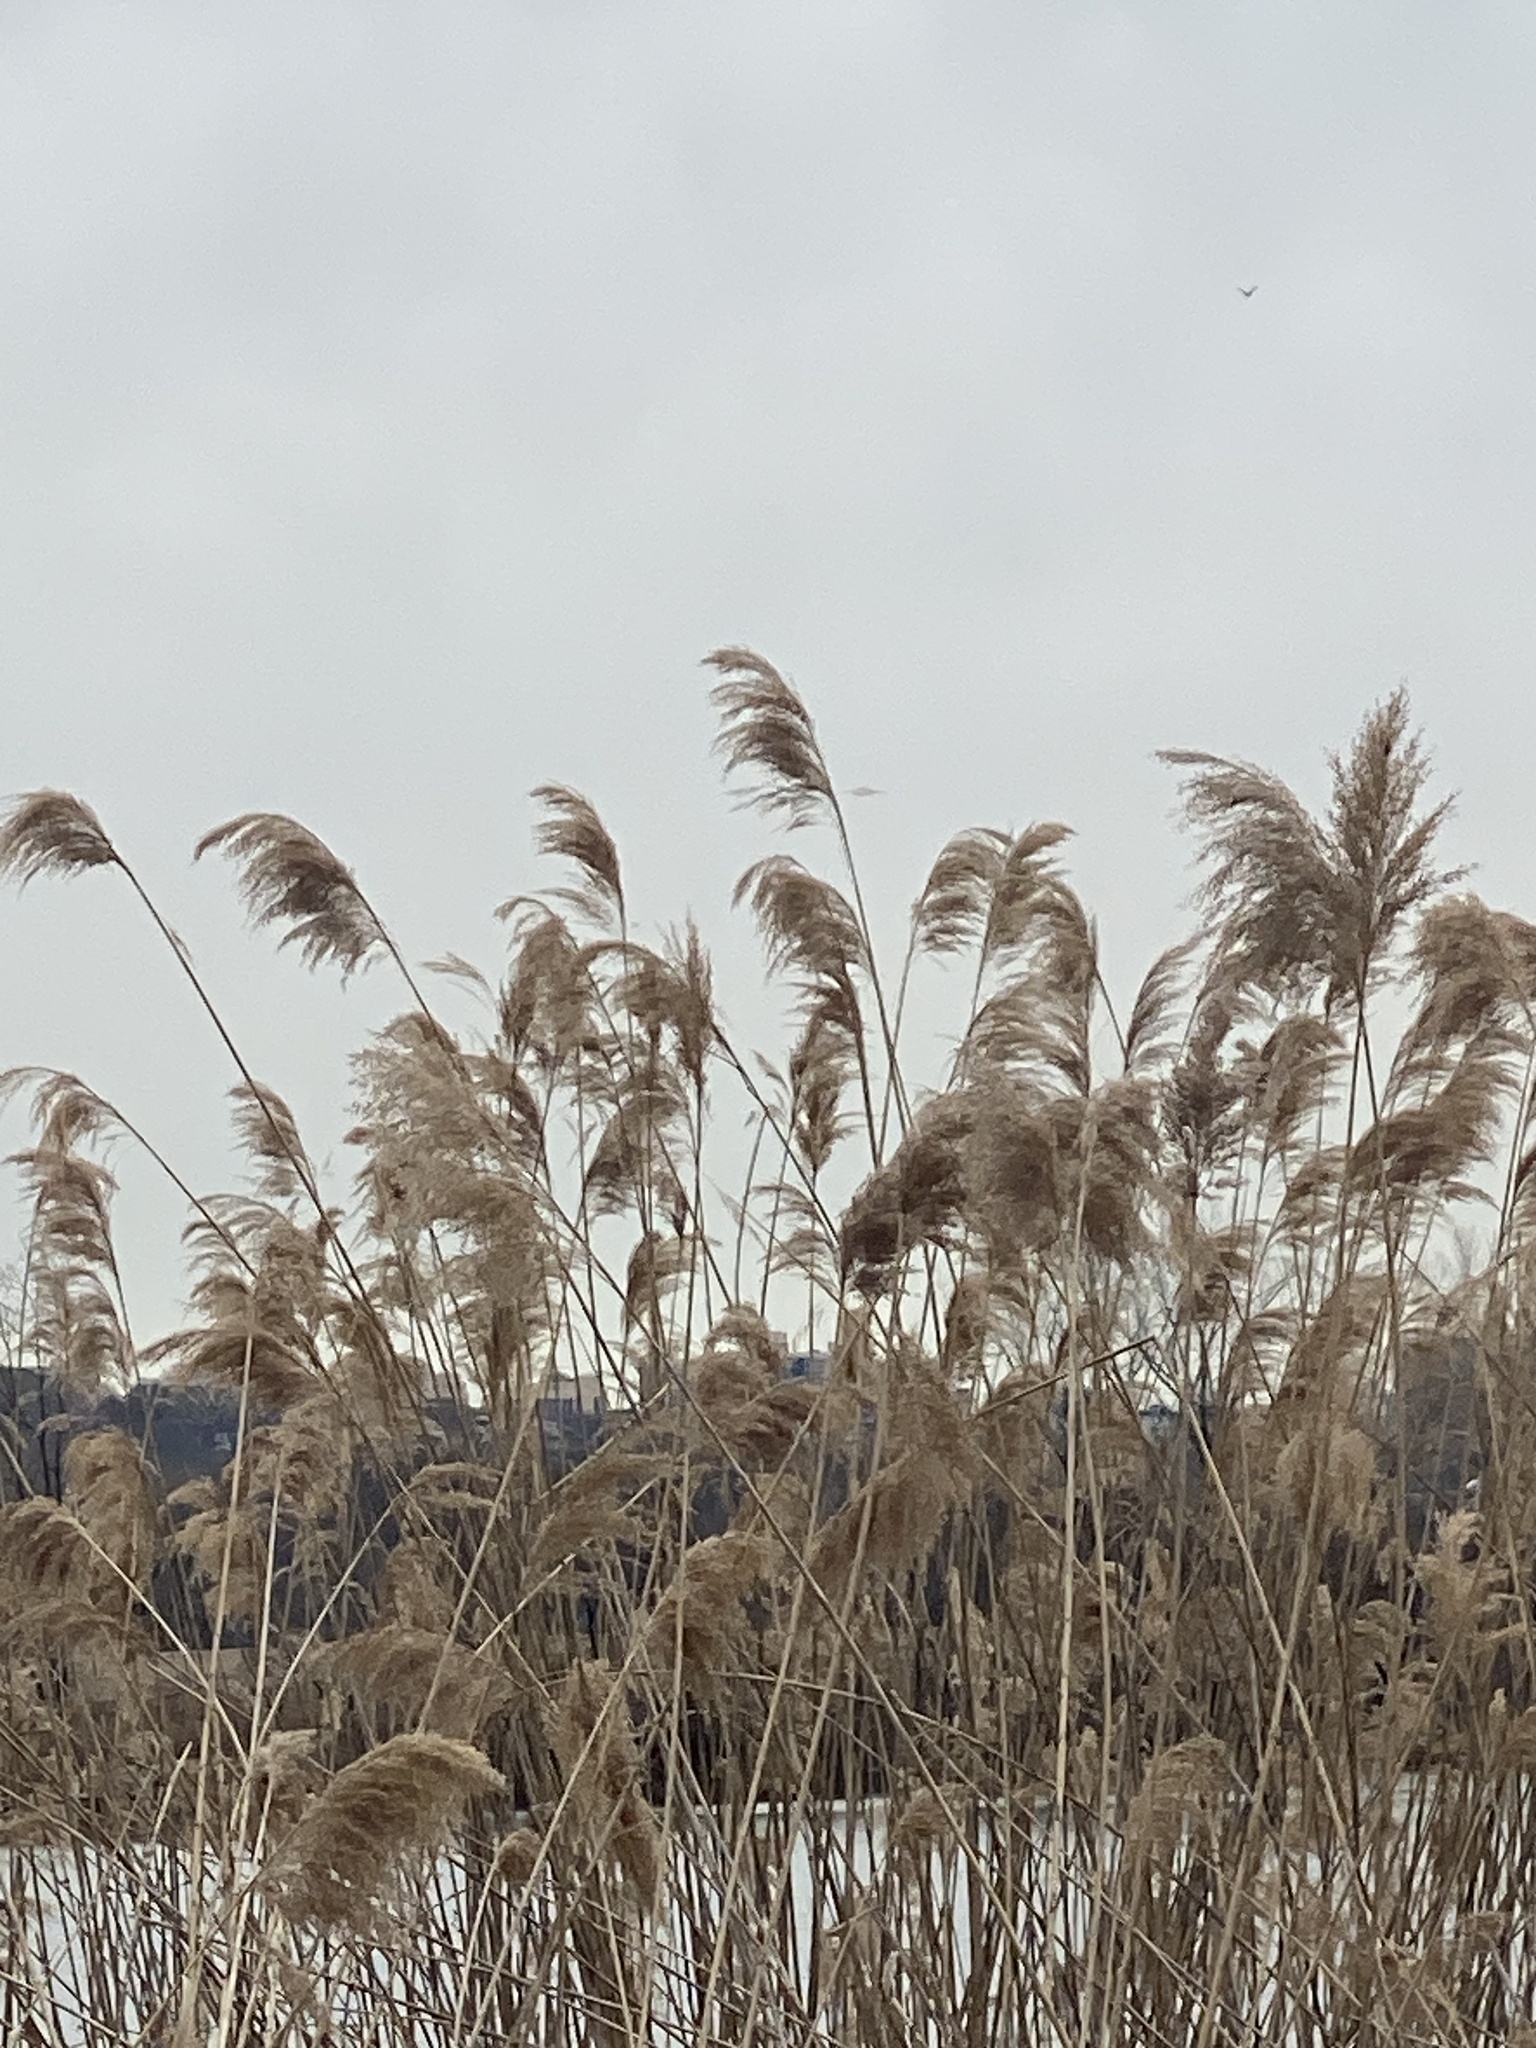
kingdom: Plantae
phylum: Tracheophyta
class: Liliopsida
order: Poales
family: Poaceae
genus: Phragmites
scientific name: Phragmites australis
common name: Common reed
